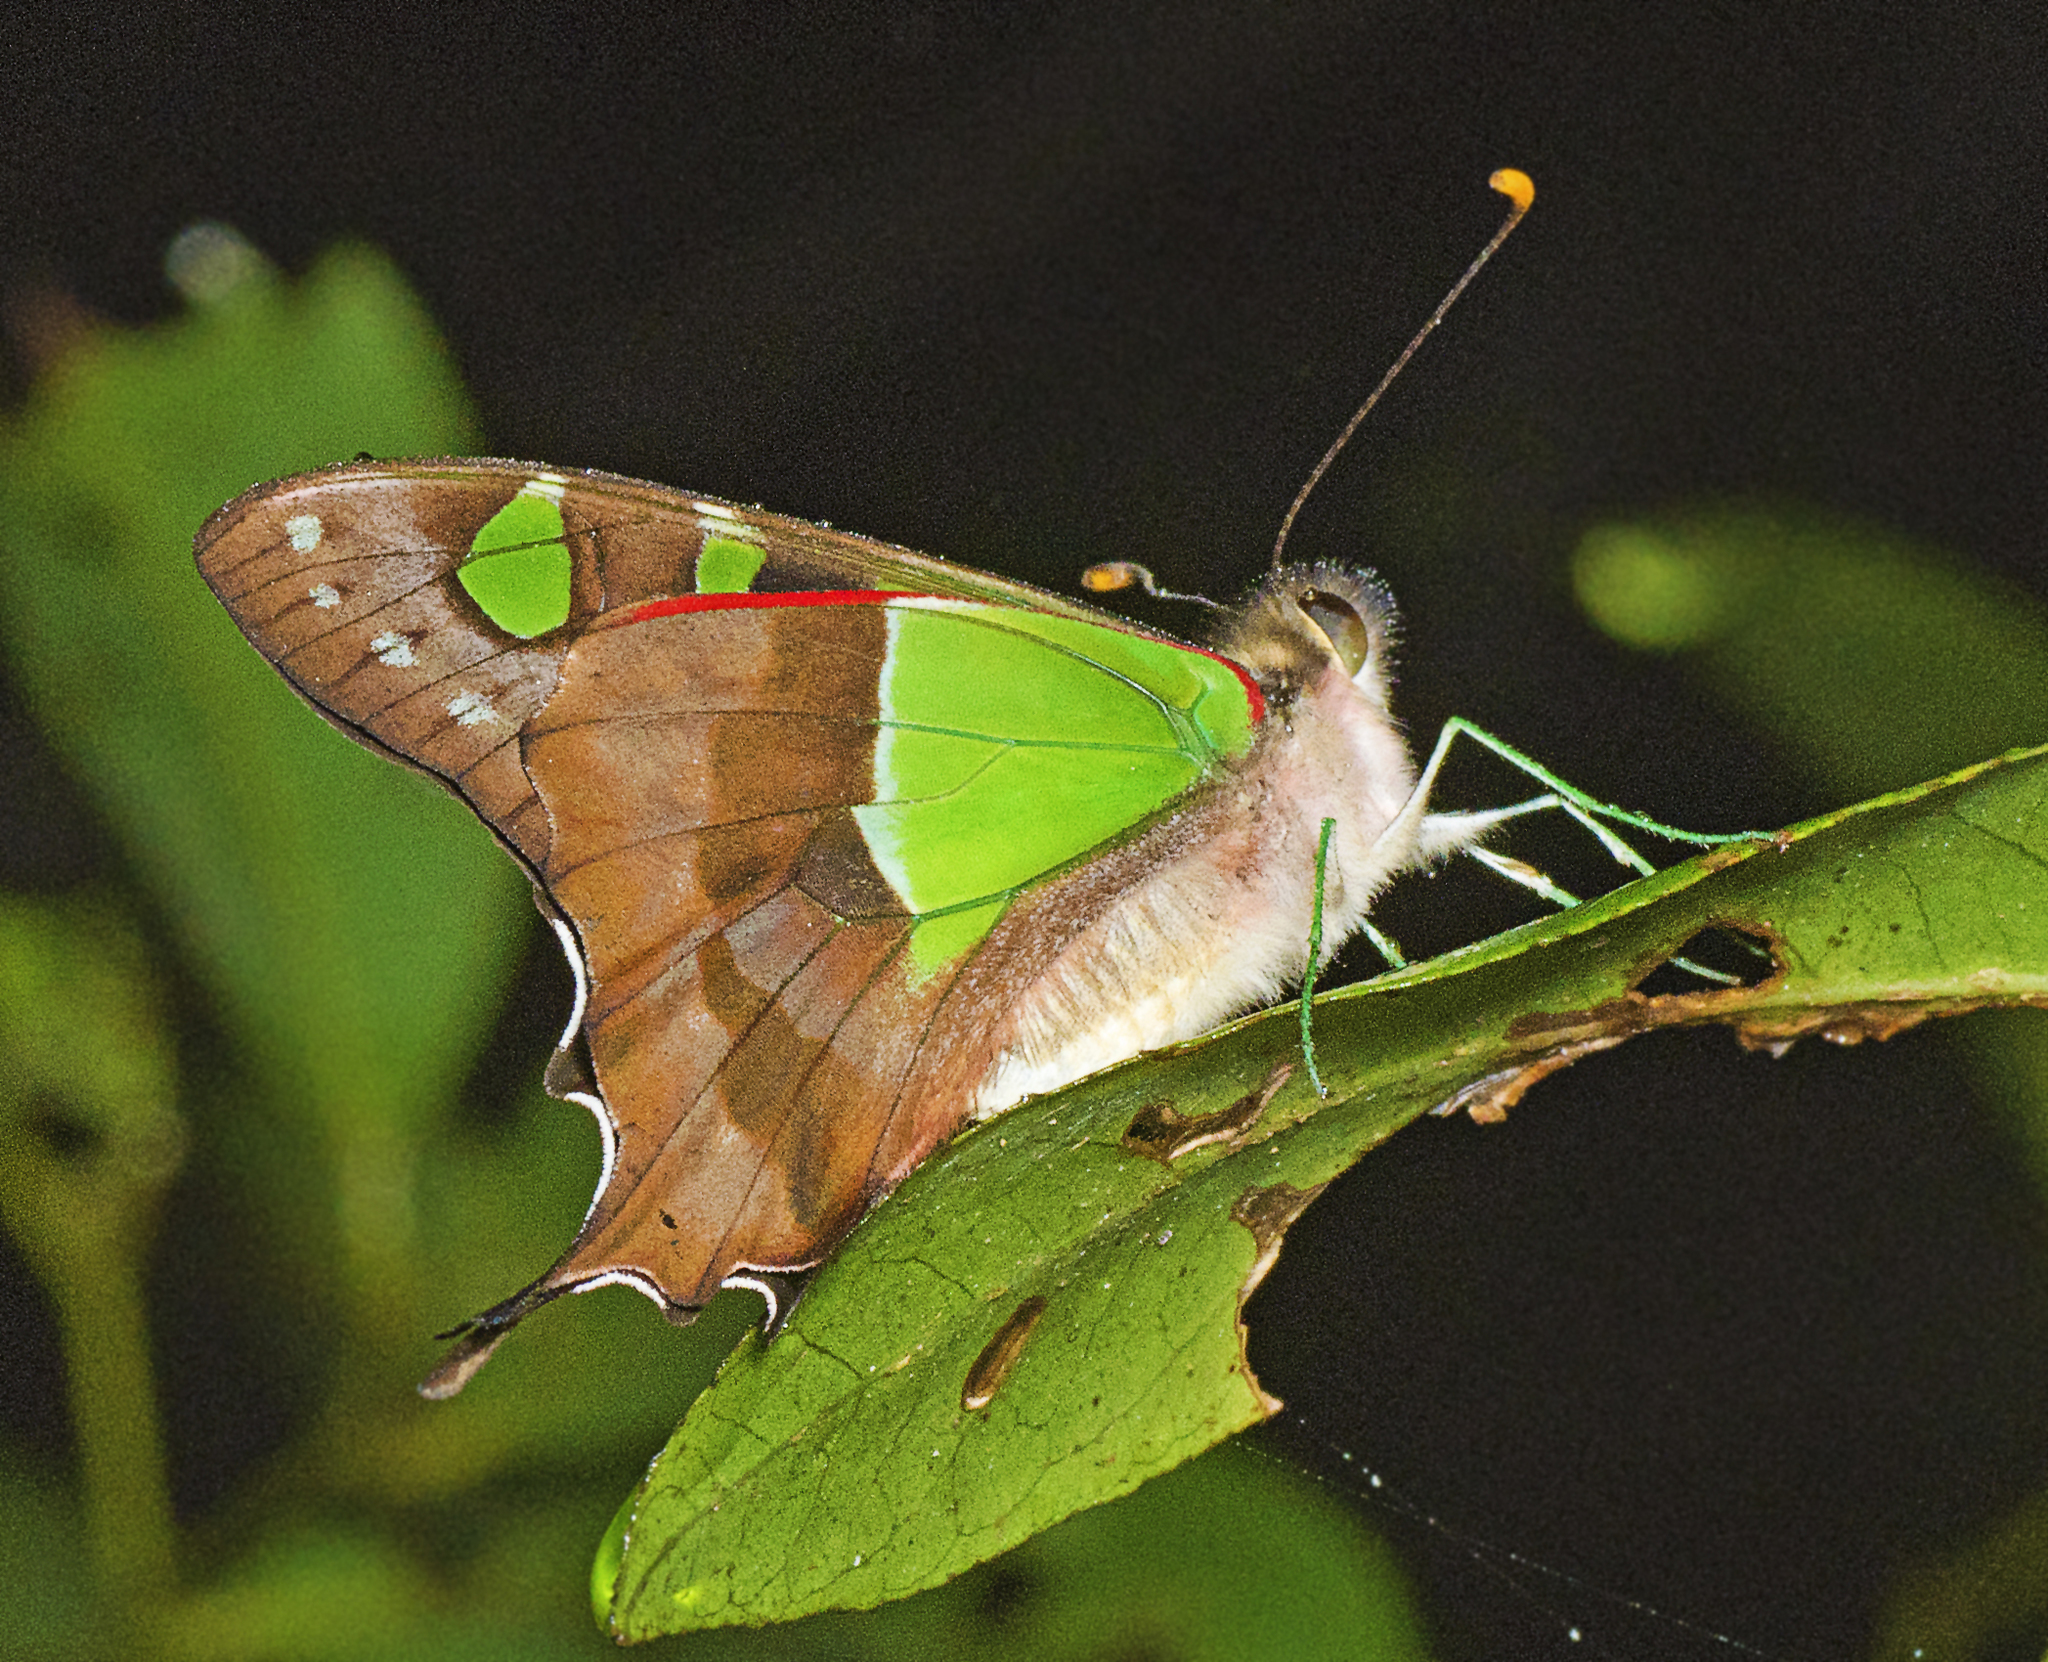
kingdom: Animalia
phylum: Arthropoda
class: Insecta
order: Lepidoptera
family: Papilionidae
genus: Graphium
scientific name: Graphium macleayanus
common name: Macleay's swallowtail
